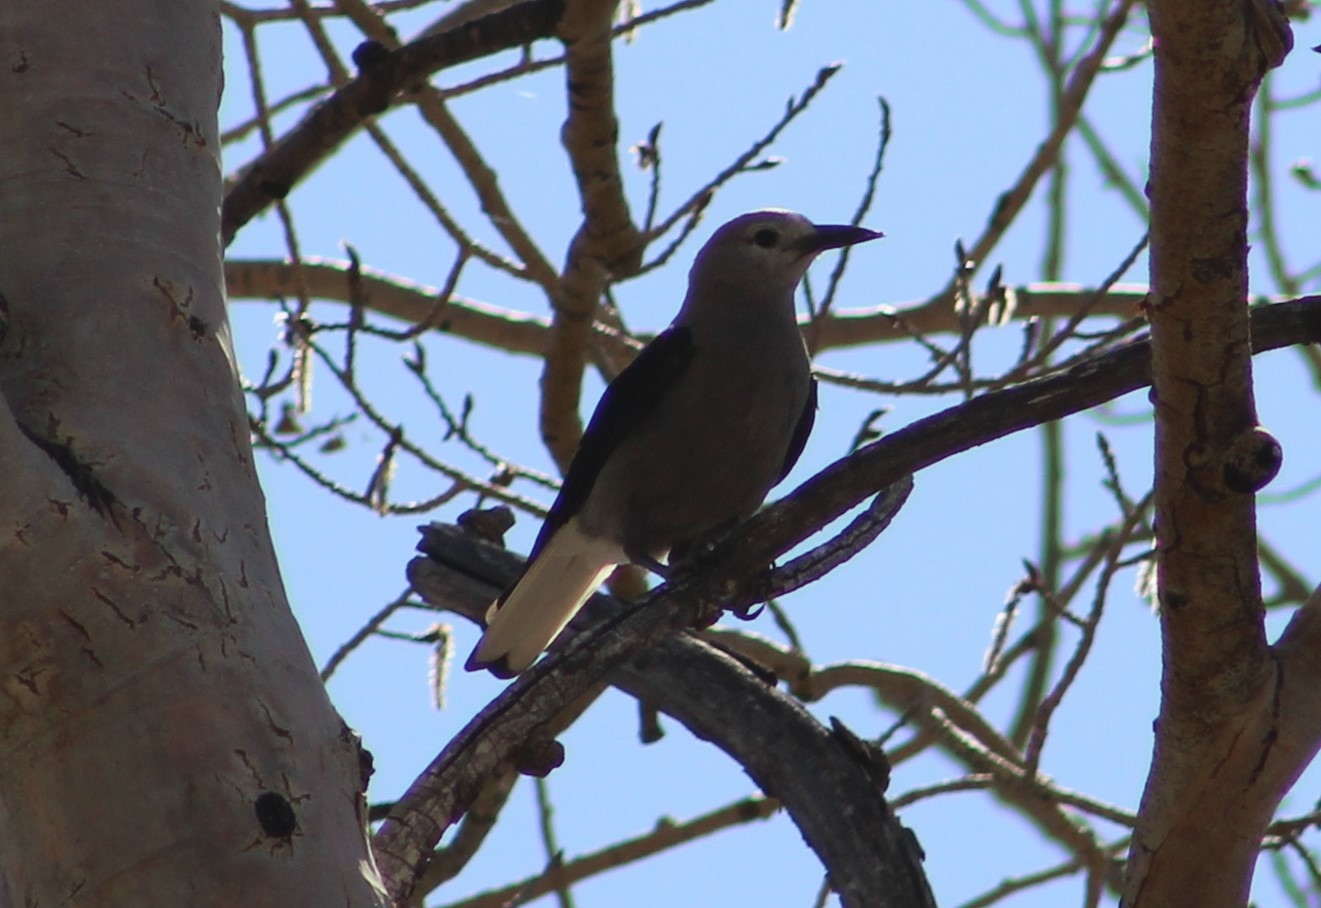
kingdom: Animalia
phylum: Chordata
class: Aves
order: Passeriformes
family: Corvidae
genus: Nucifraga
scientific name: Nucifraga columbiana
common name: Clark's nutcracker
